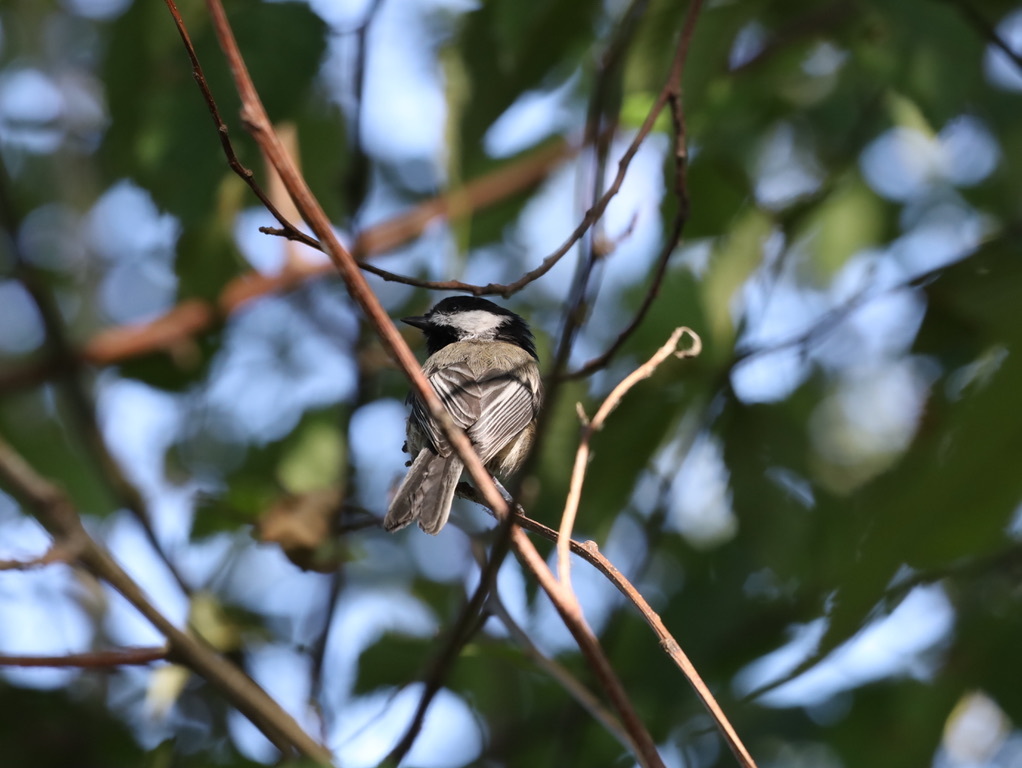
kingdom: Animalia
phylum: Chordata
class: Aves
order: Passeriformes
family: Paridae
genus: Poecile
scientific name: Poecile atricapillus
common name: Black-capped chickadee
